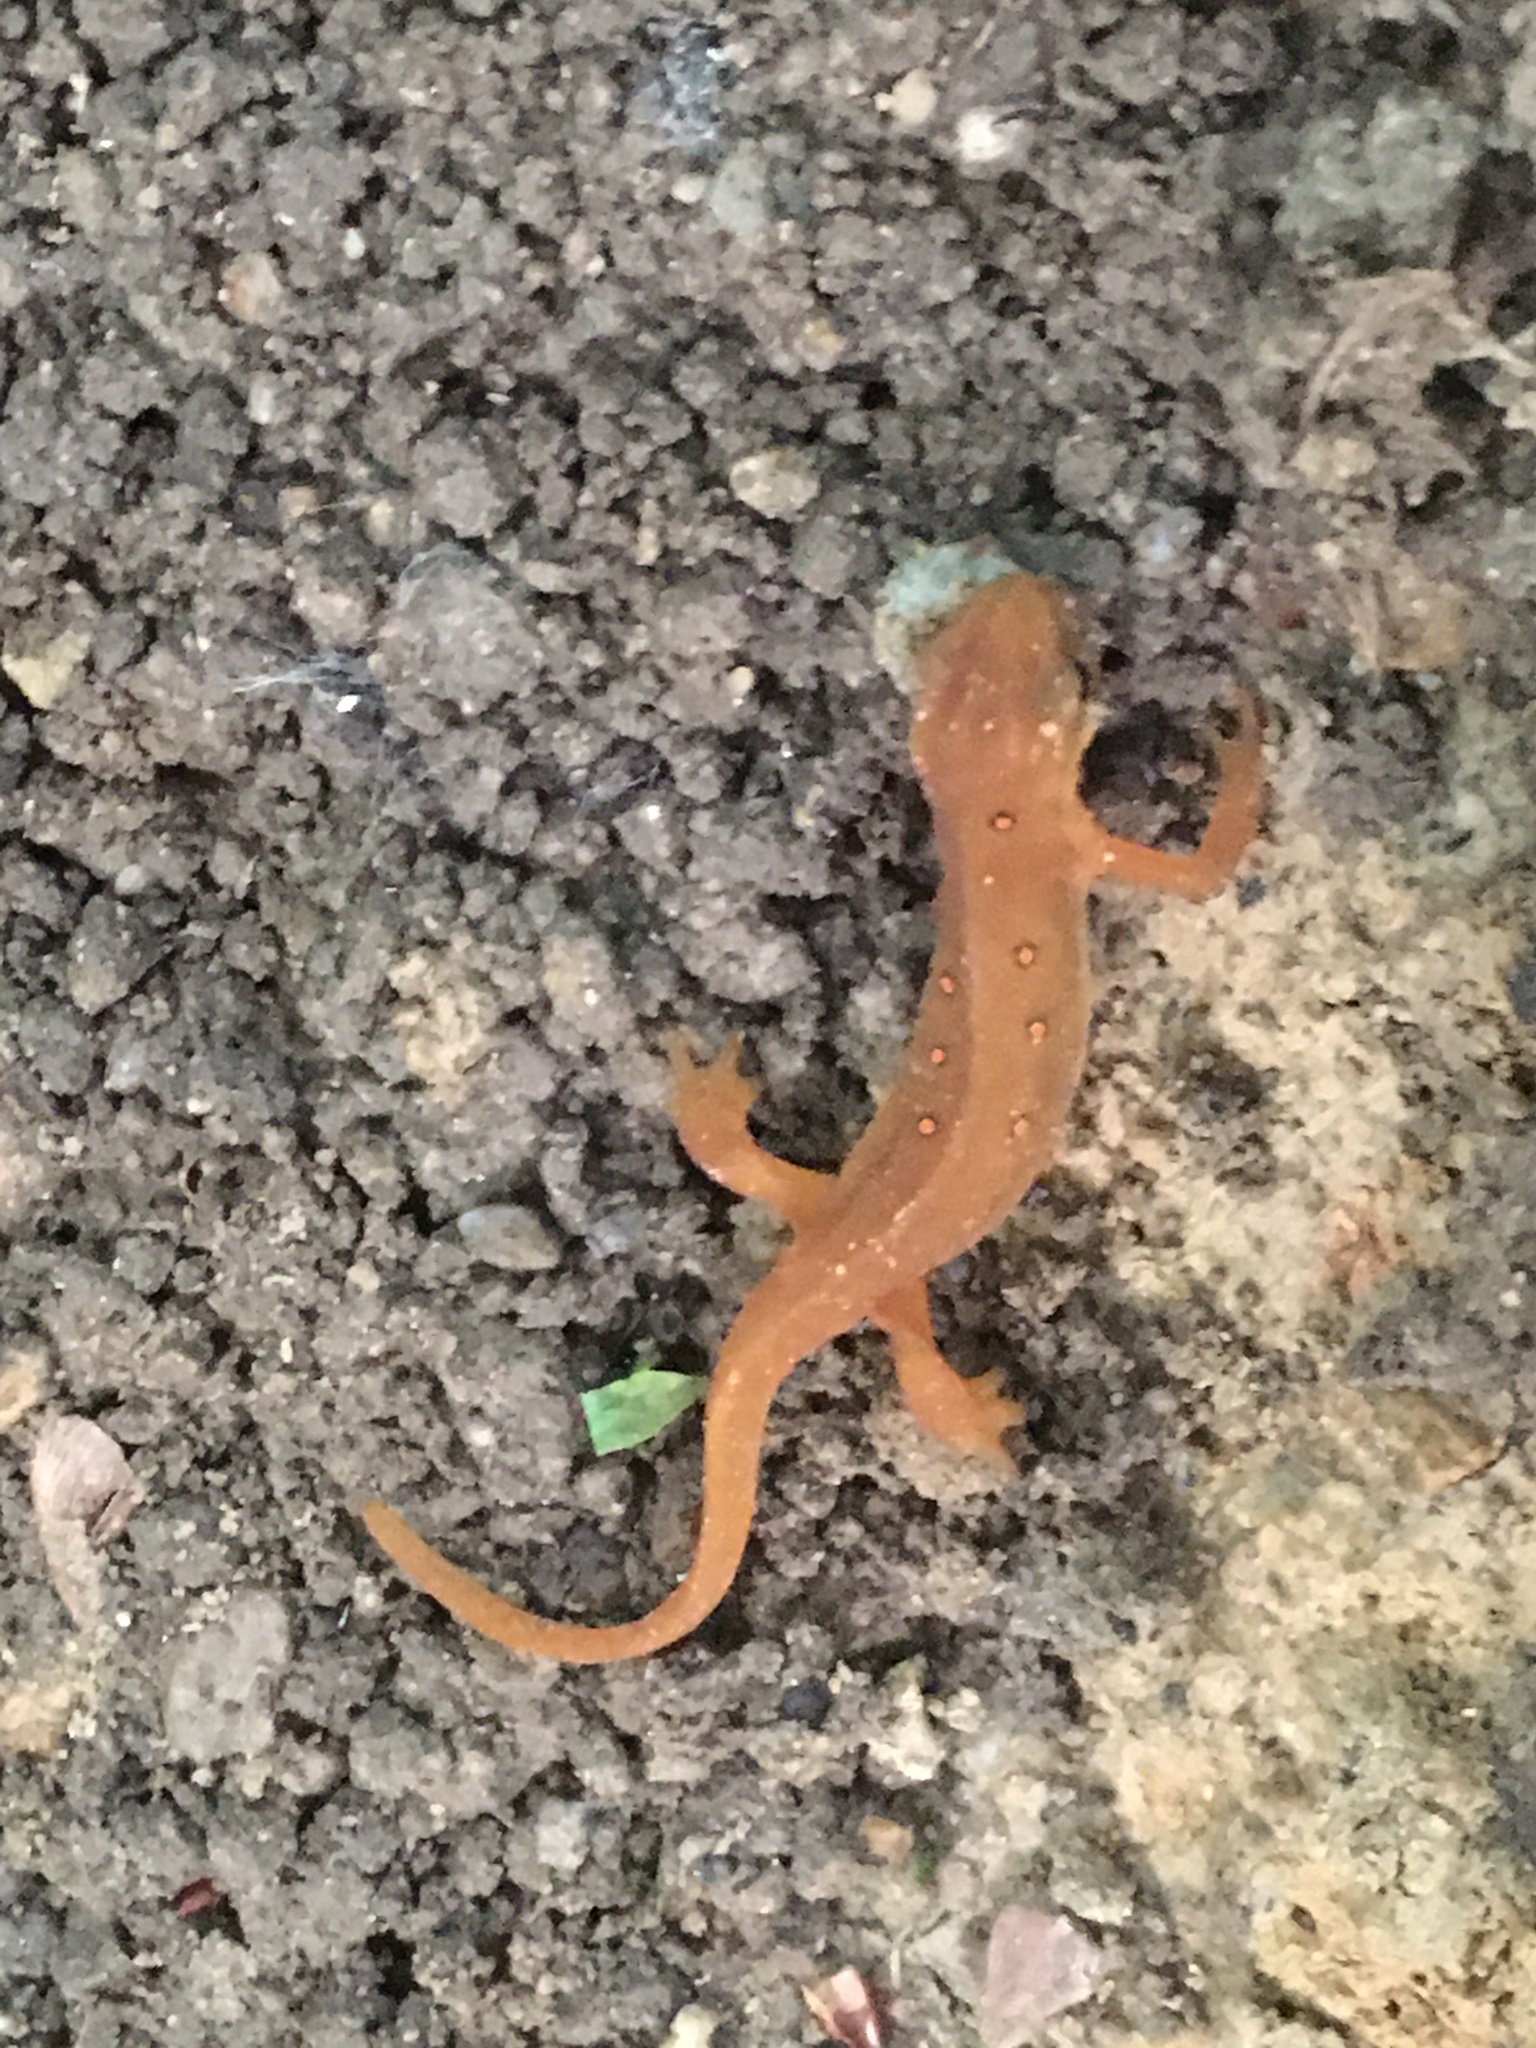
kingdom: Animalia
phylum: Chordata
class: Amphibia
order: Caudata
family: Salamandridae
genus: Notophthalmus
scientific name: Notophthalmus viridescens
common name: Eastern newt
